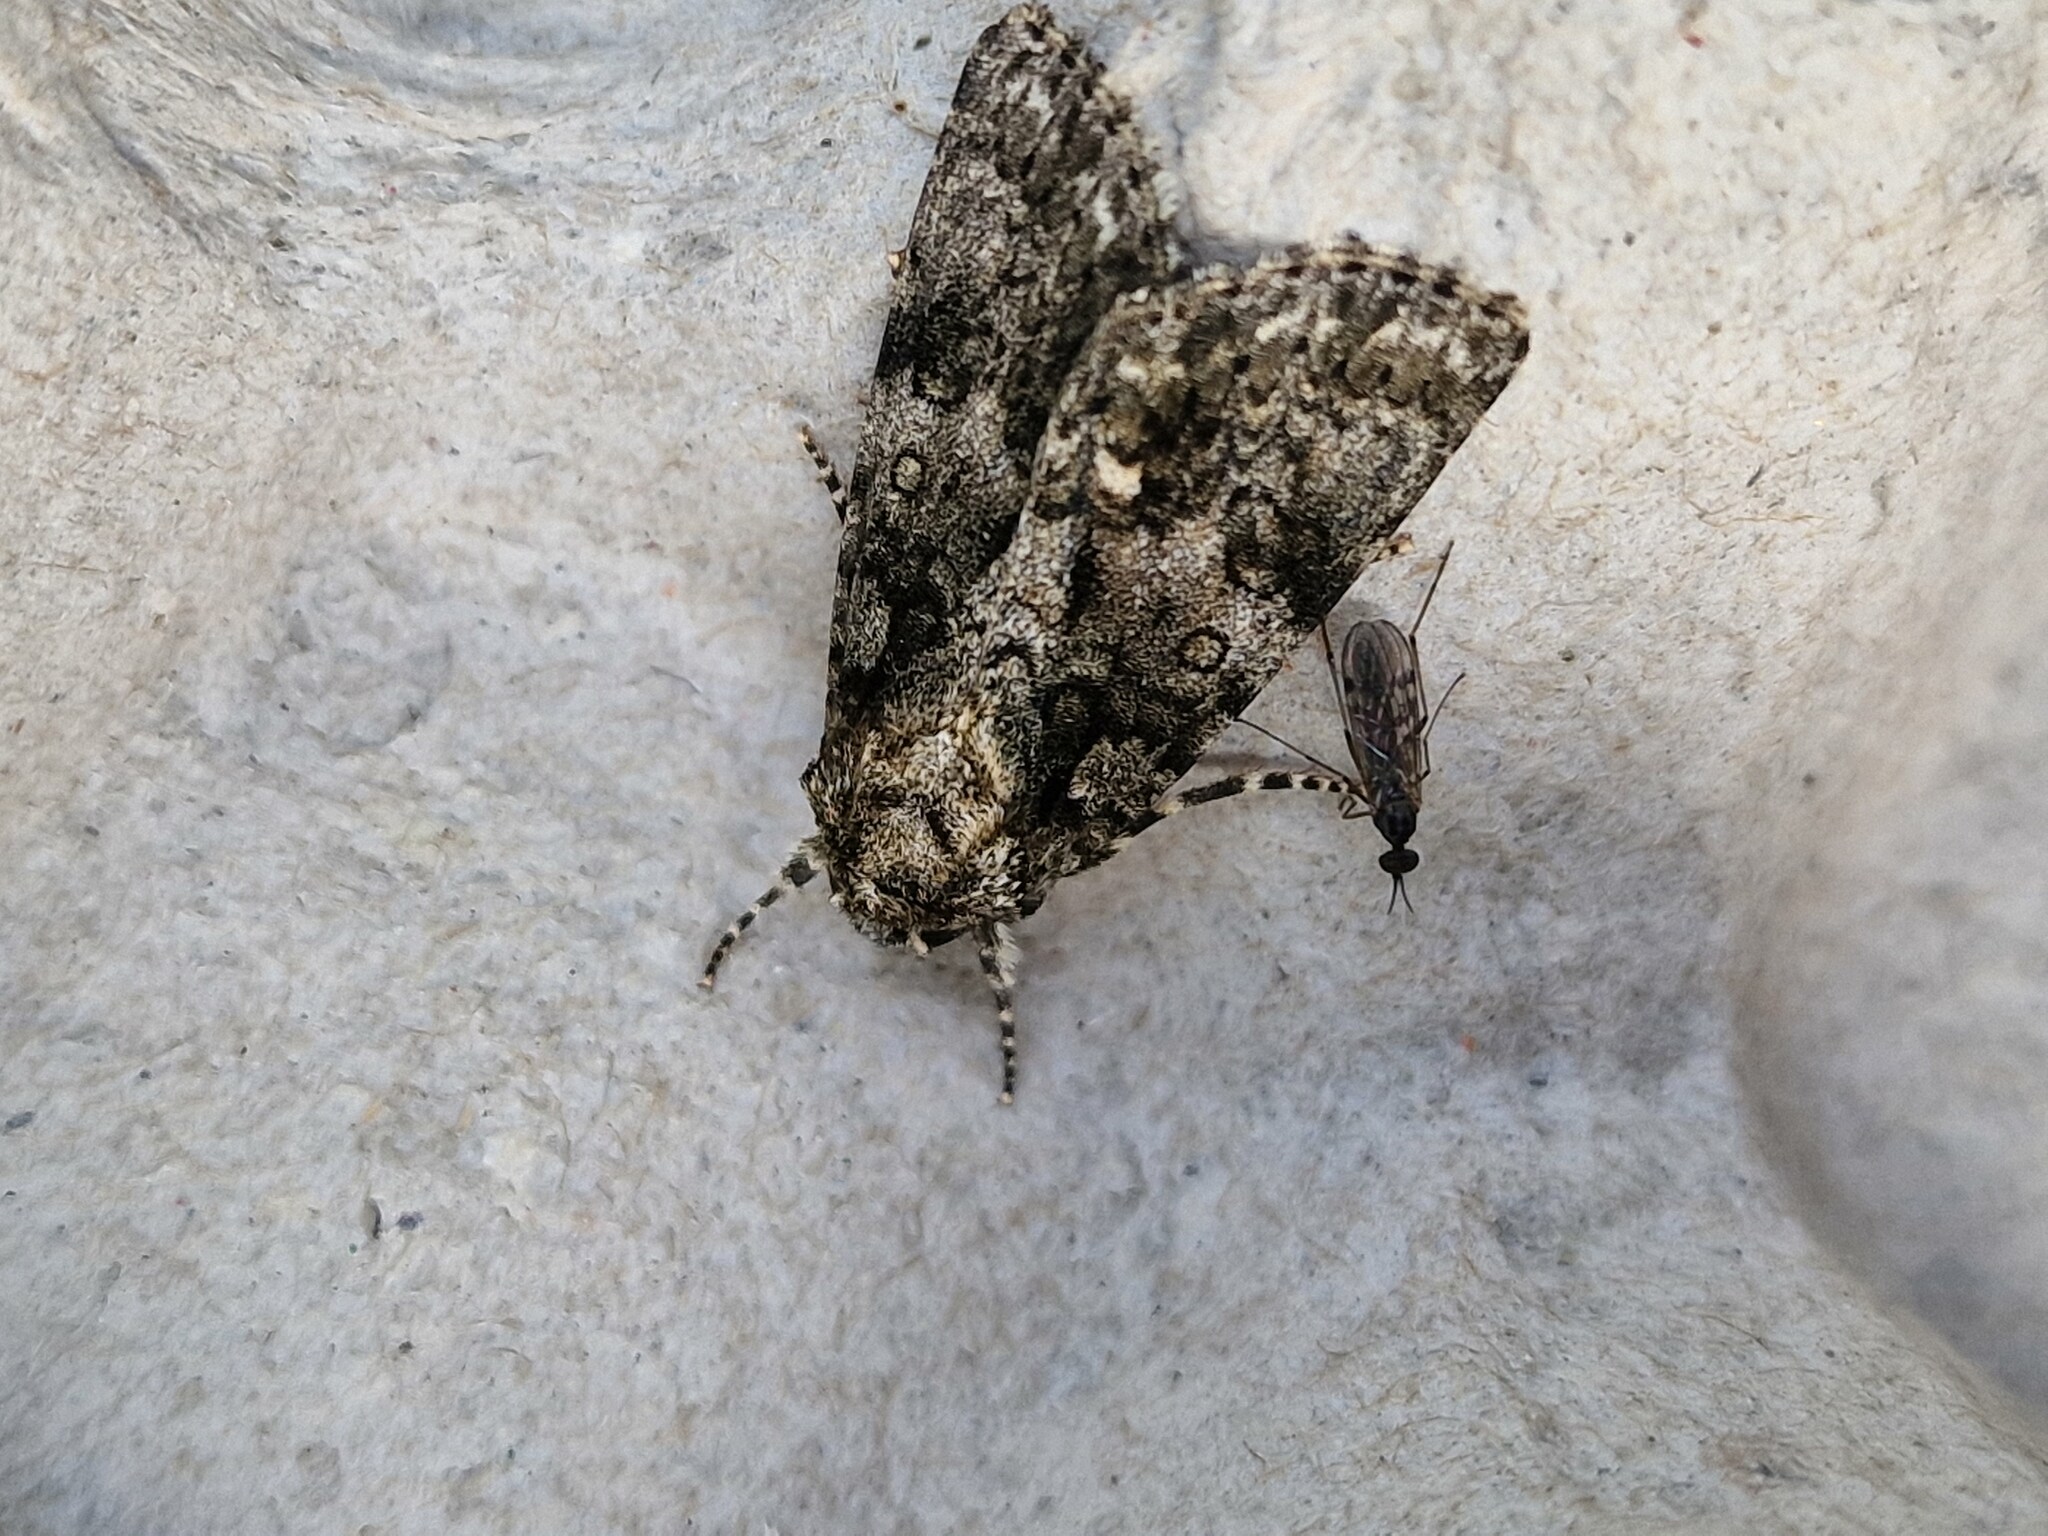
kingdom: Animalia
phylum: Arthropoda
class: Insecta
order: Lepidoptera
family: Noctuidae
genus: Acronicta
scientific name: Acronicta rumicis
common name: Knot grass
